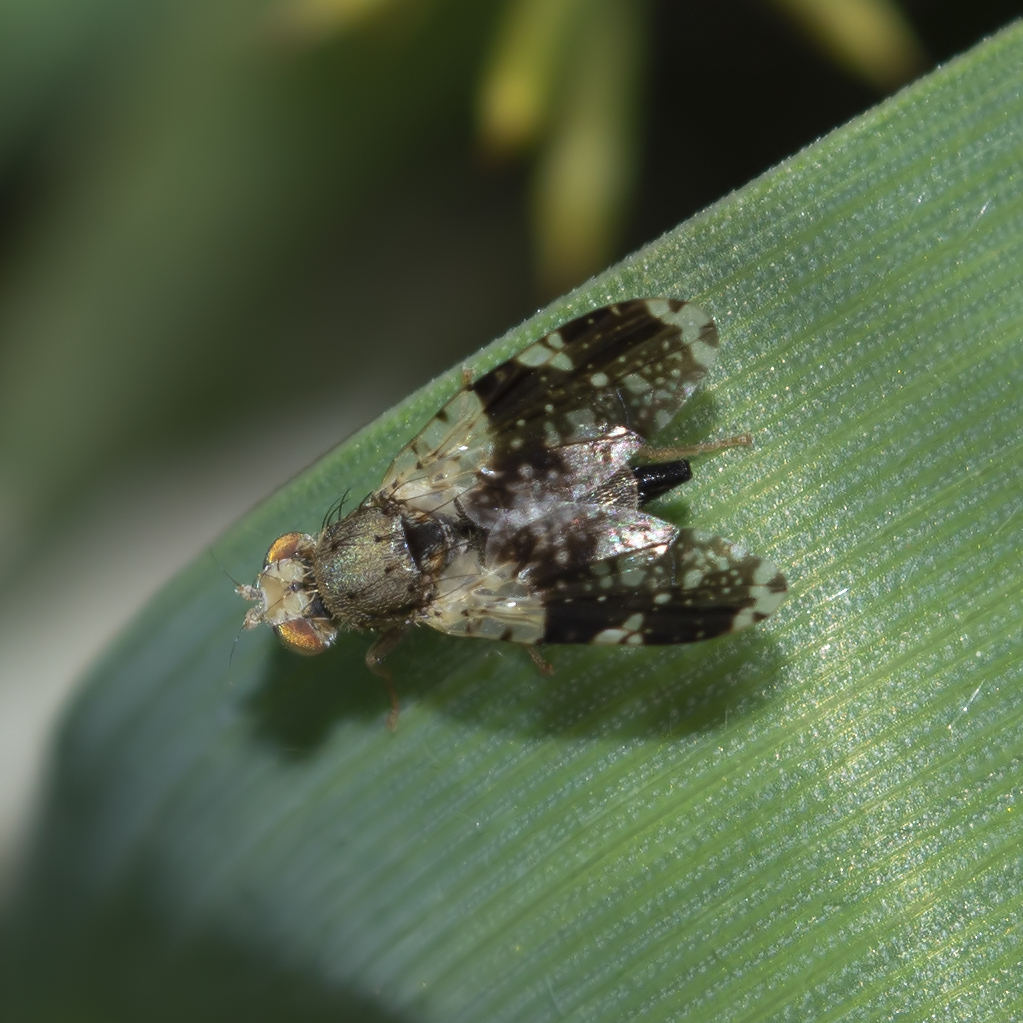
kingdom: Animalia
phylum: Arthropoda
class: Insecta
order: Diptera
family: Tephritidae
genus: Tephritis
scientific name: Tephritis formosa
